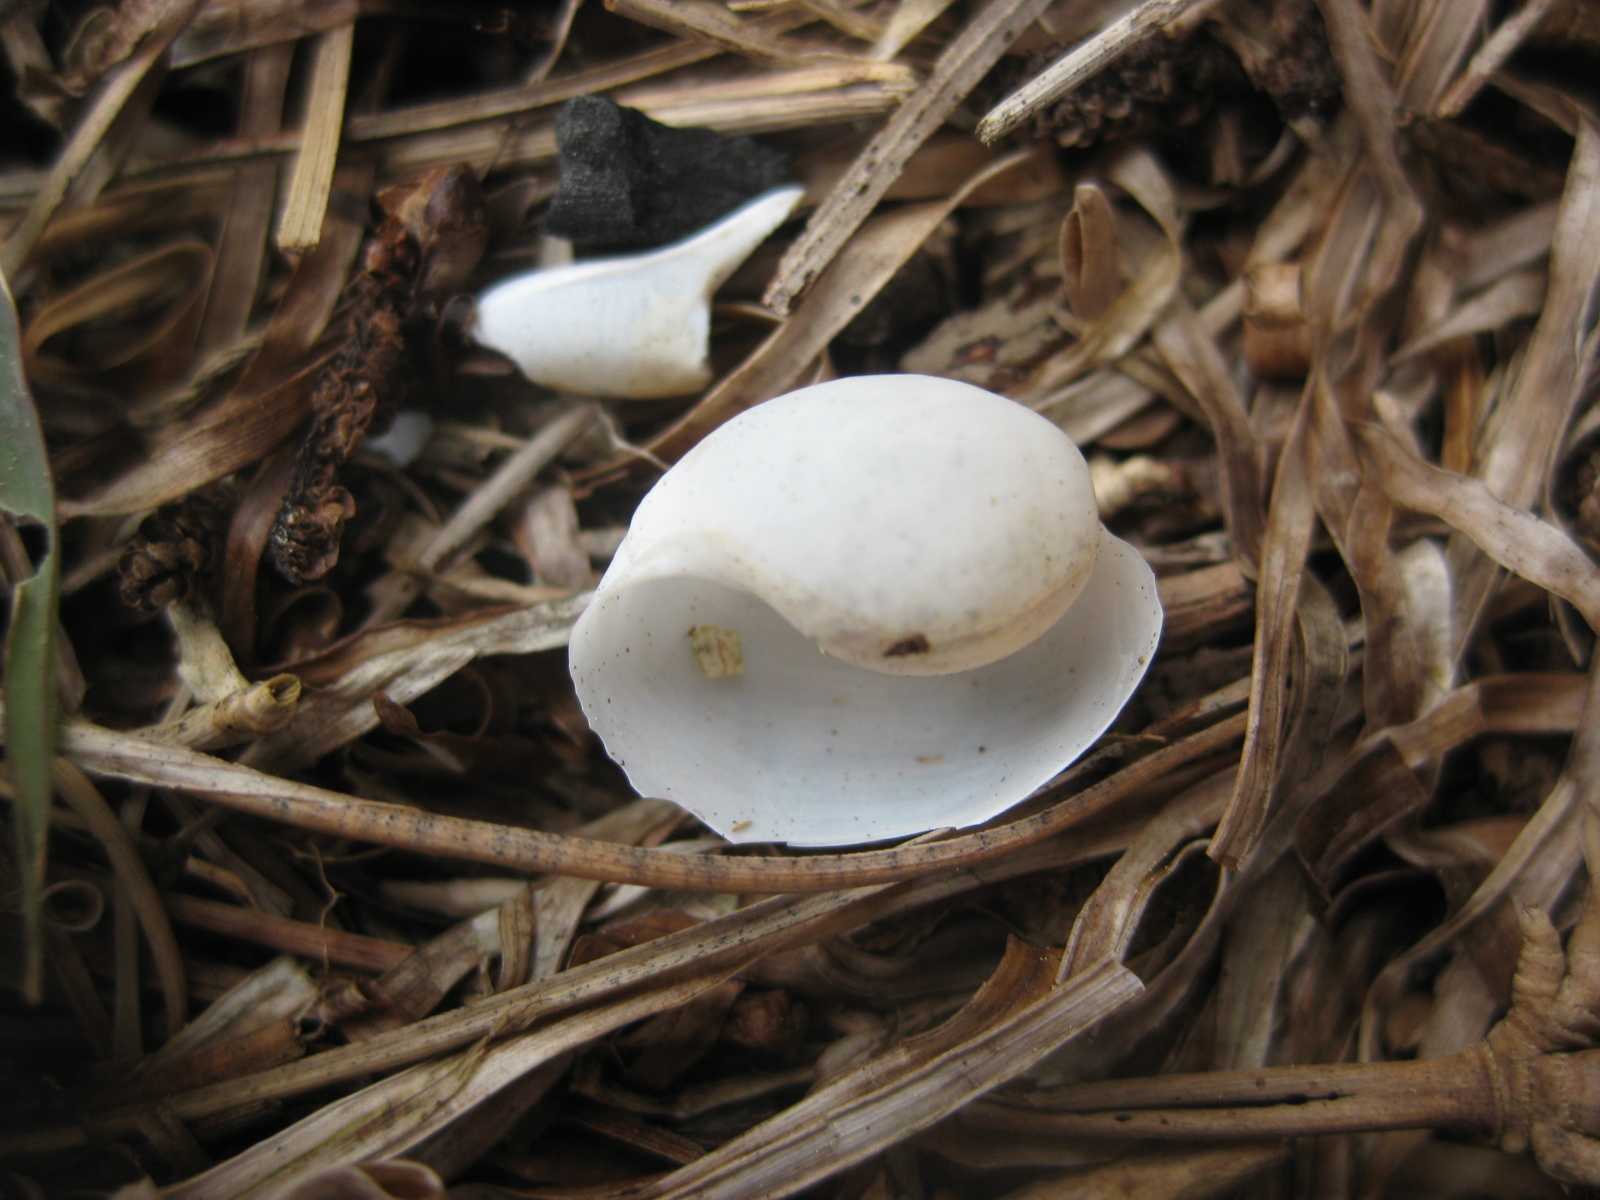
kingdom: Animalia
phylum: Mollusca
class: Gastropoda
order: Cephalaspidea
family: Haminoeidae
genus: Papawera
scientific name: Papawera zelandiae
